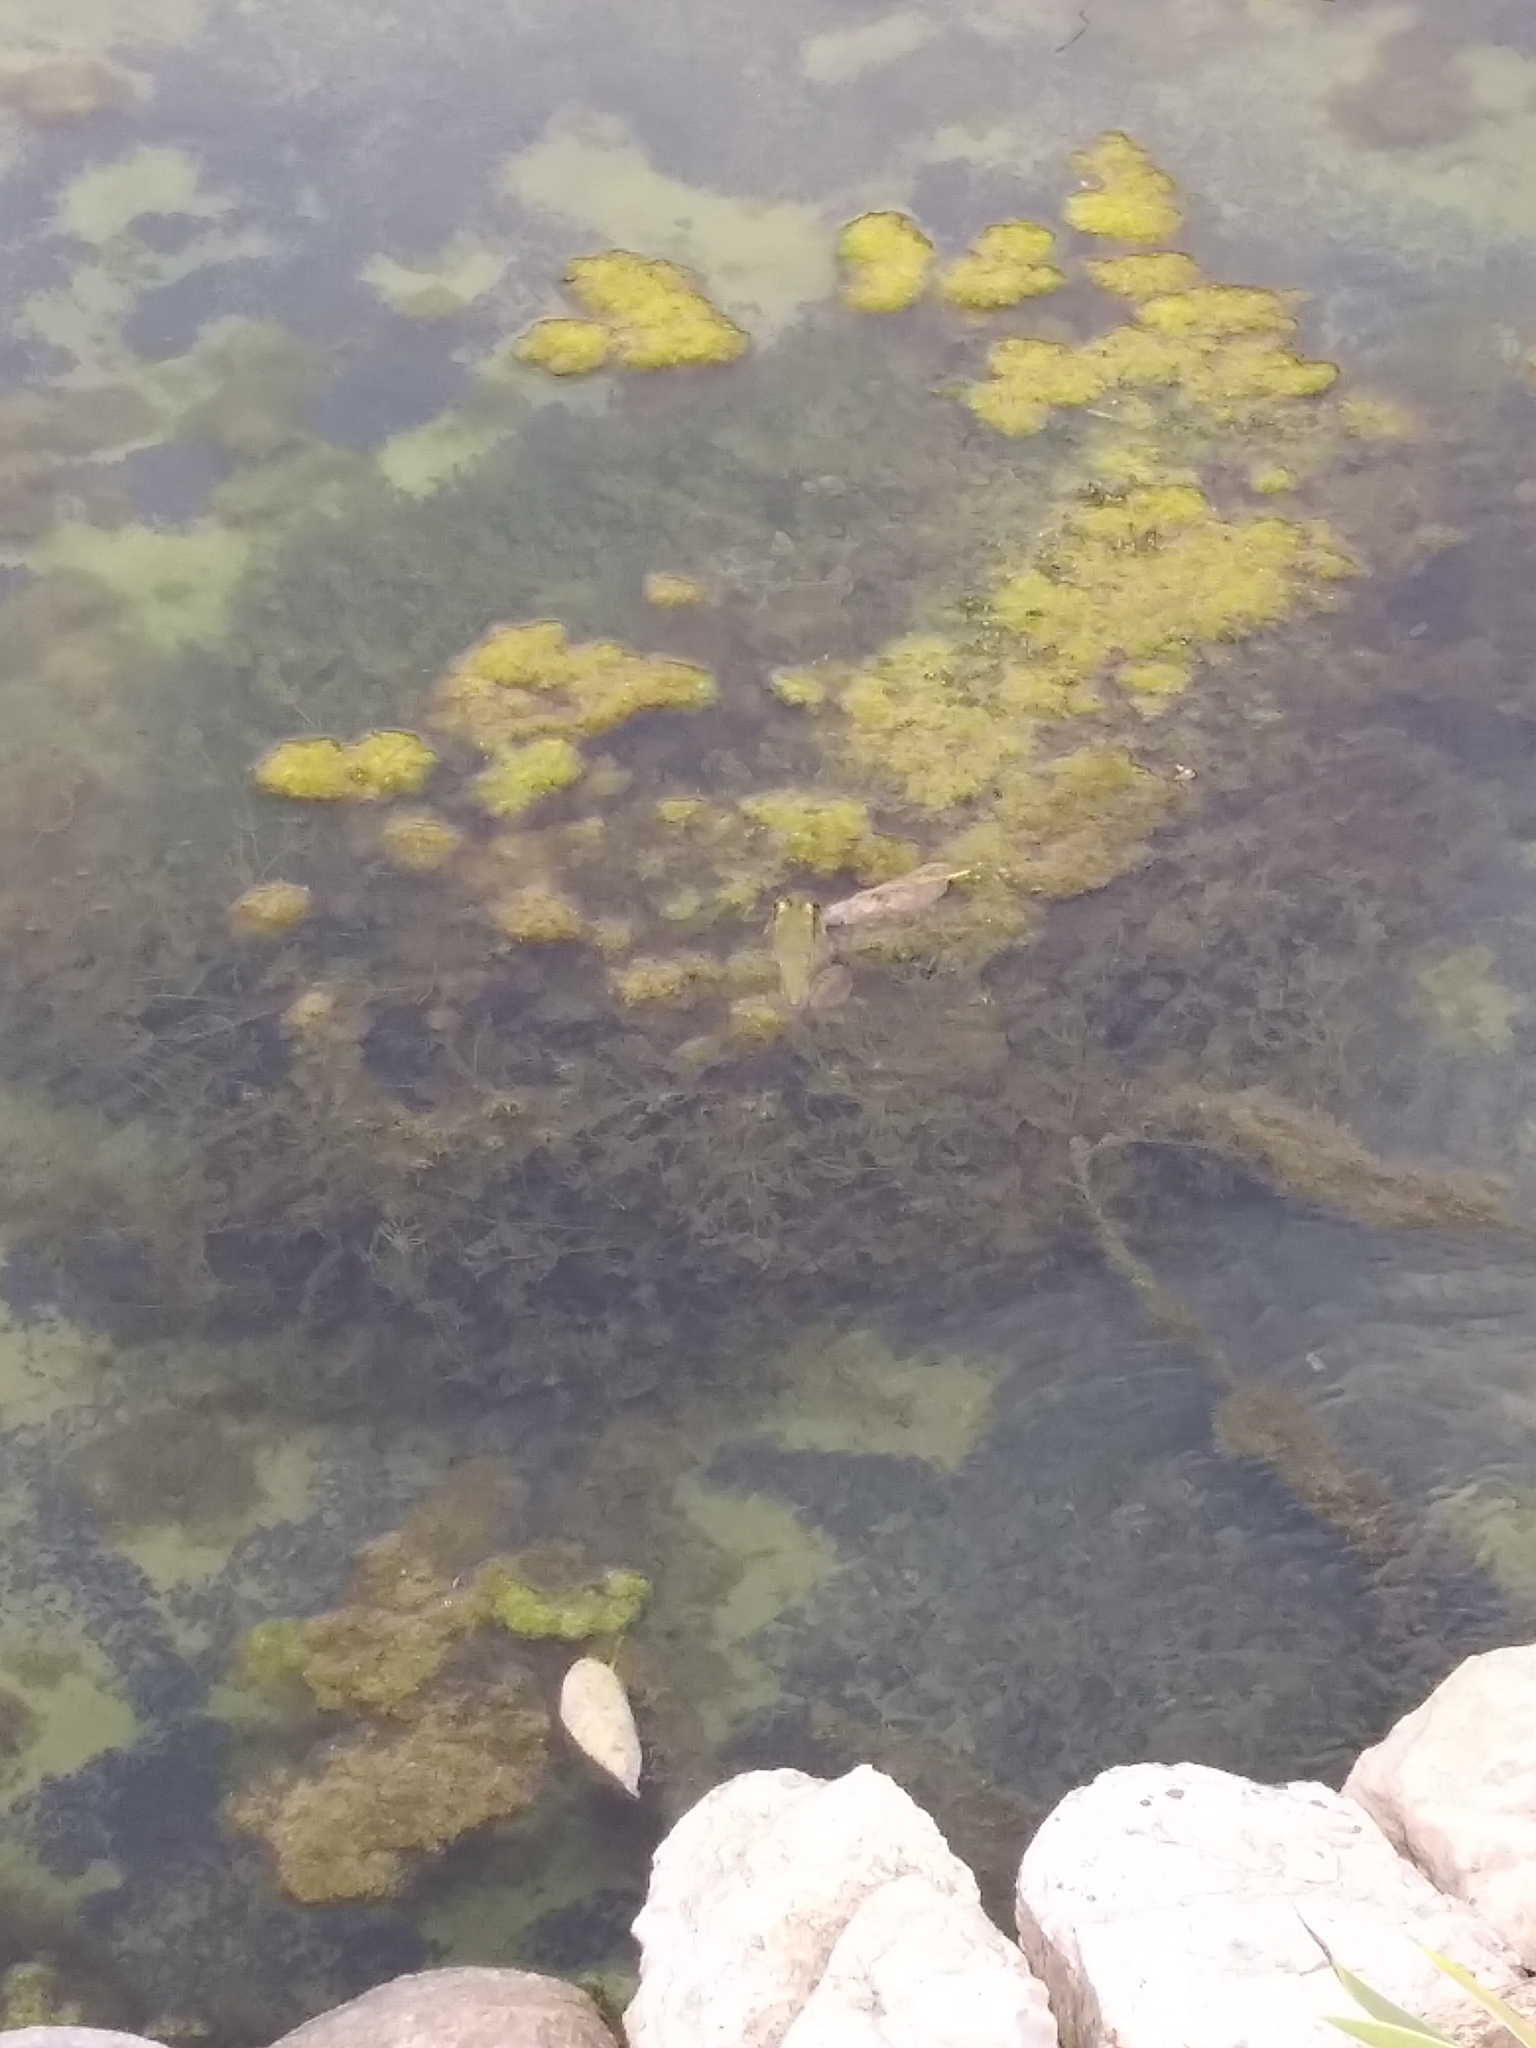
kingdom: Animalia
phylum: Chordata
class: Amphibia
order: Anura
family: Ranidae
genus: Lithobates
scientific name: Lithobates clamitans
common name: Green frog
